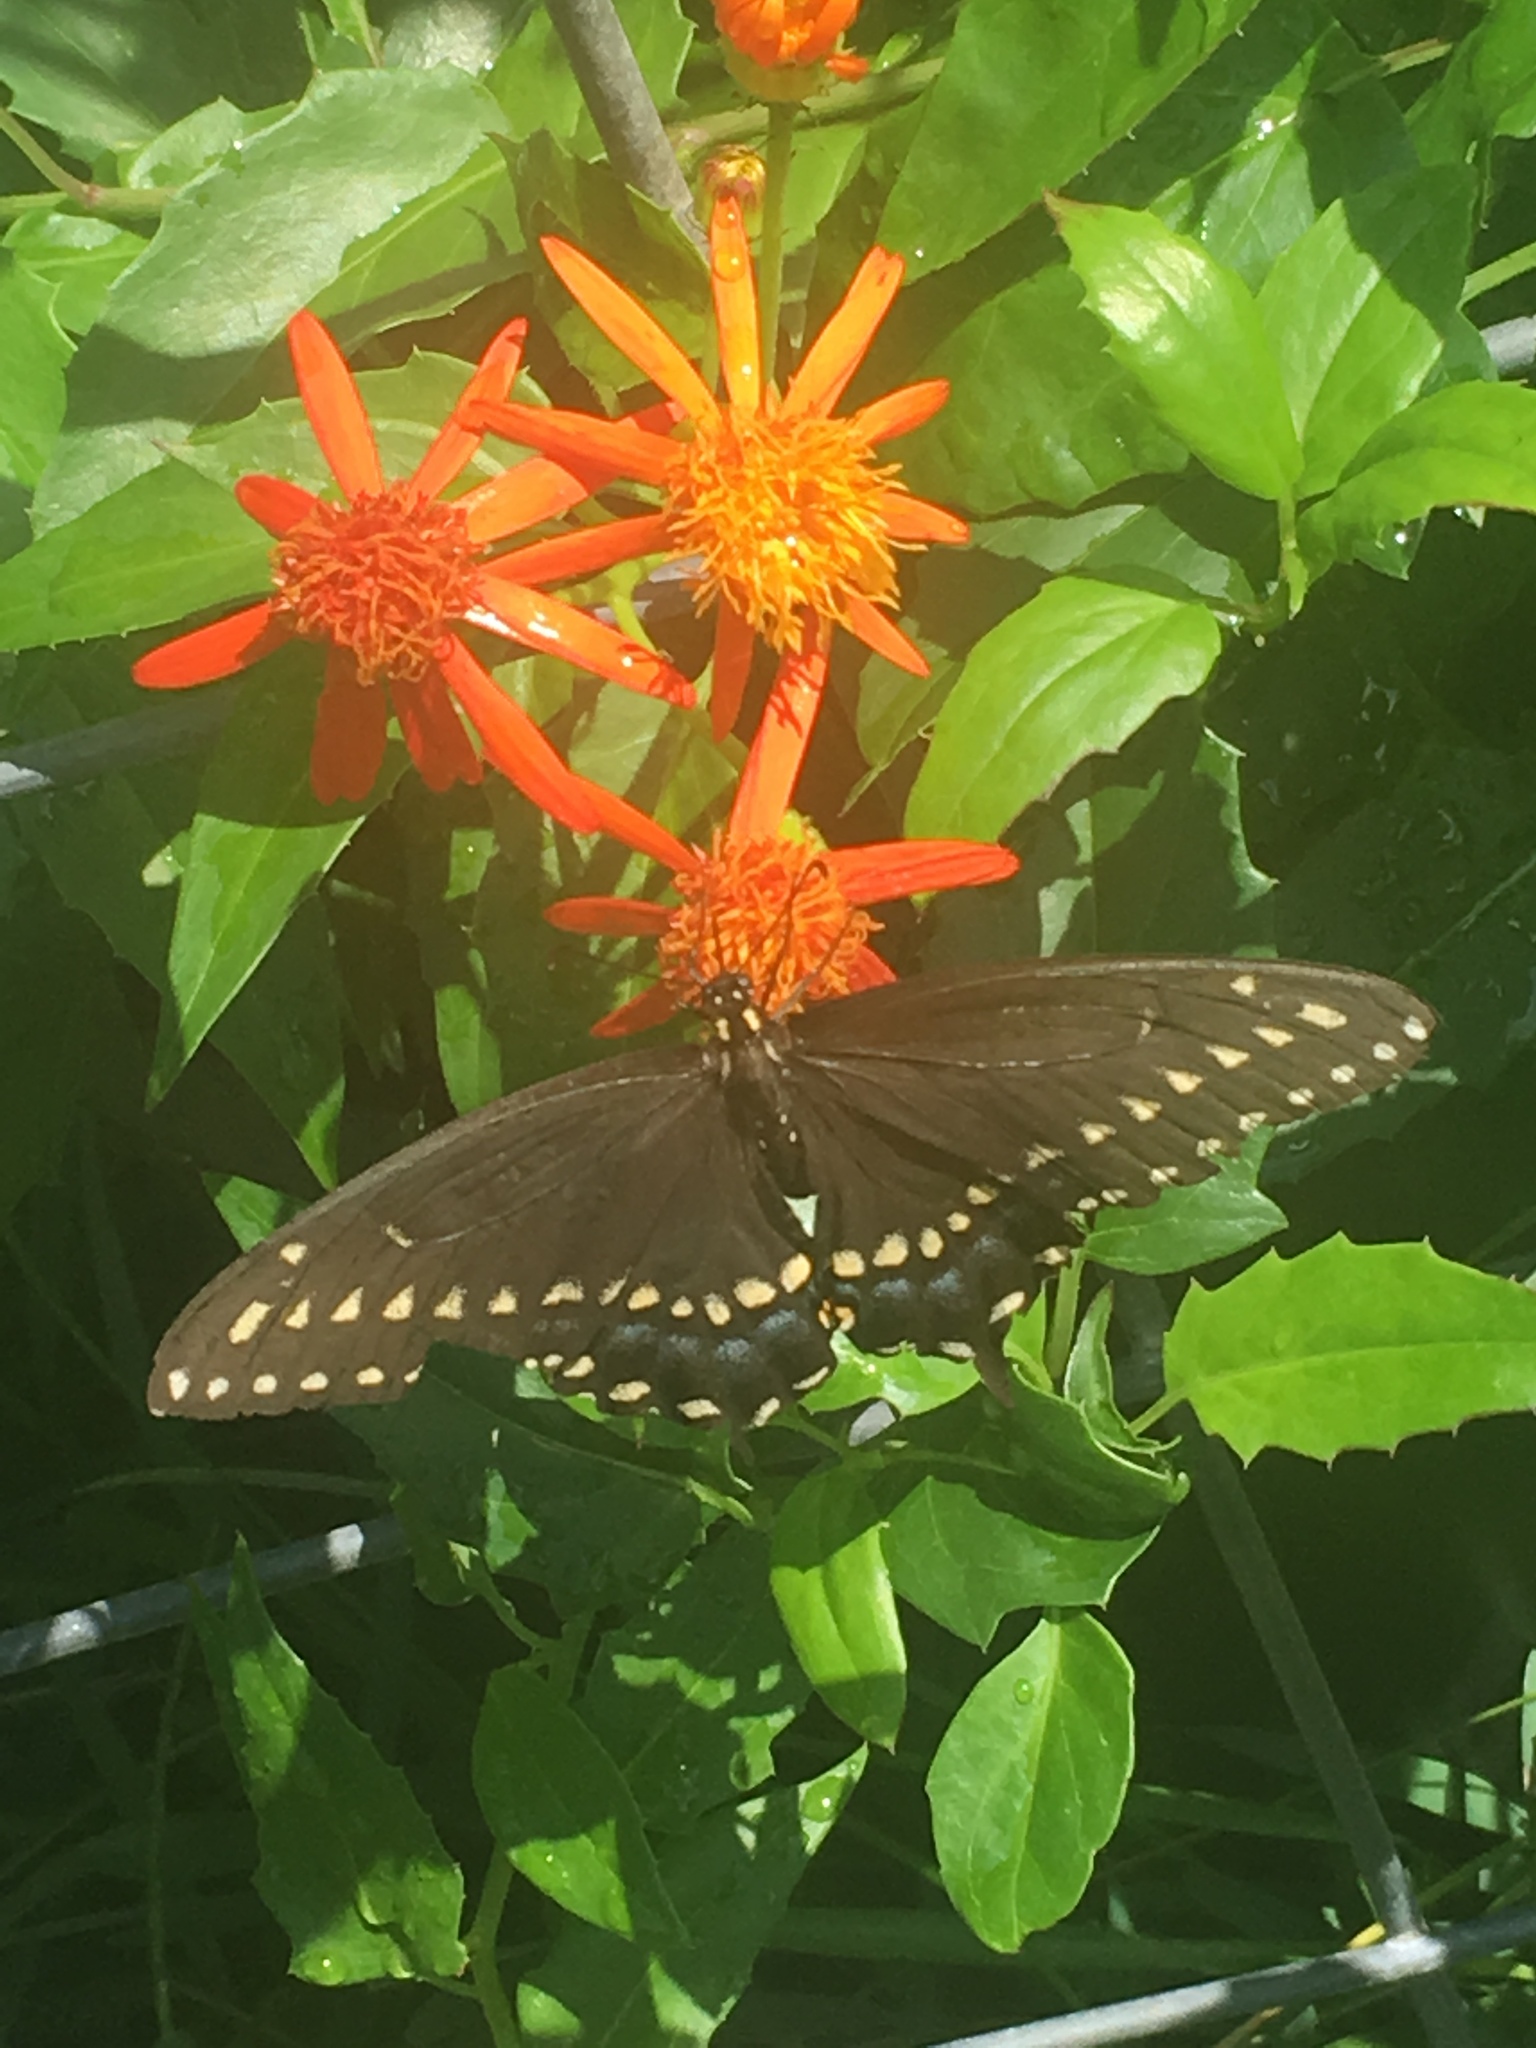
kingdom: Animalia
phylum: Arthropoda
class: Insecta
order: Lepidoptera
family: Papilionidae
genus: Papilio
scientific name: Papilio polyxenes
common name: Black swallowtail
